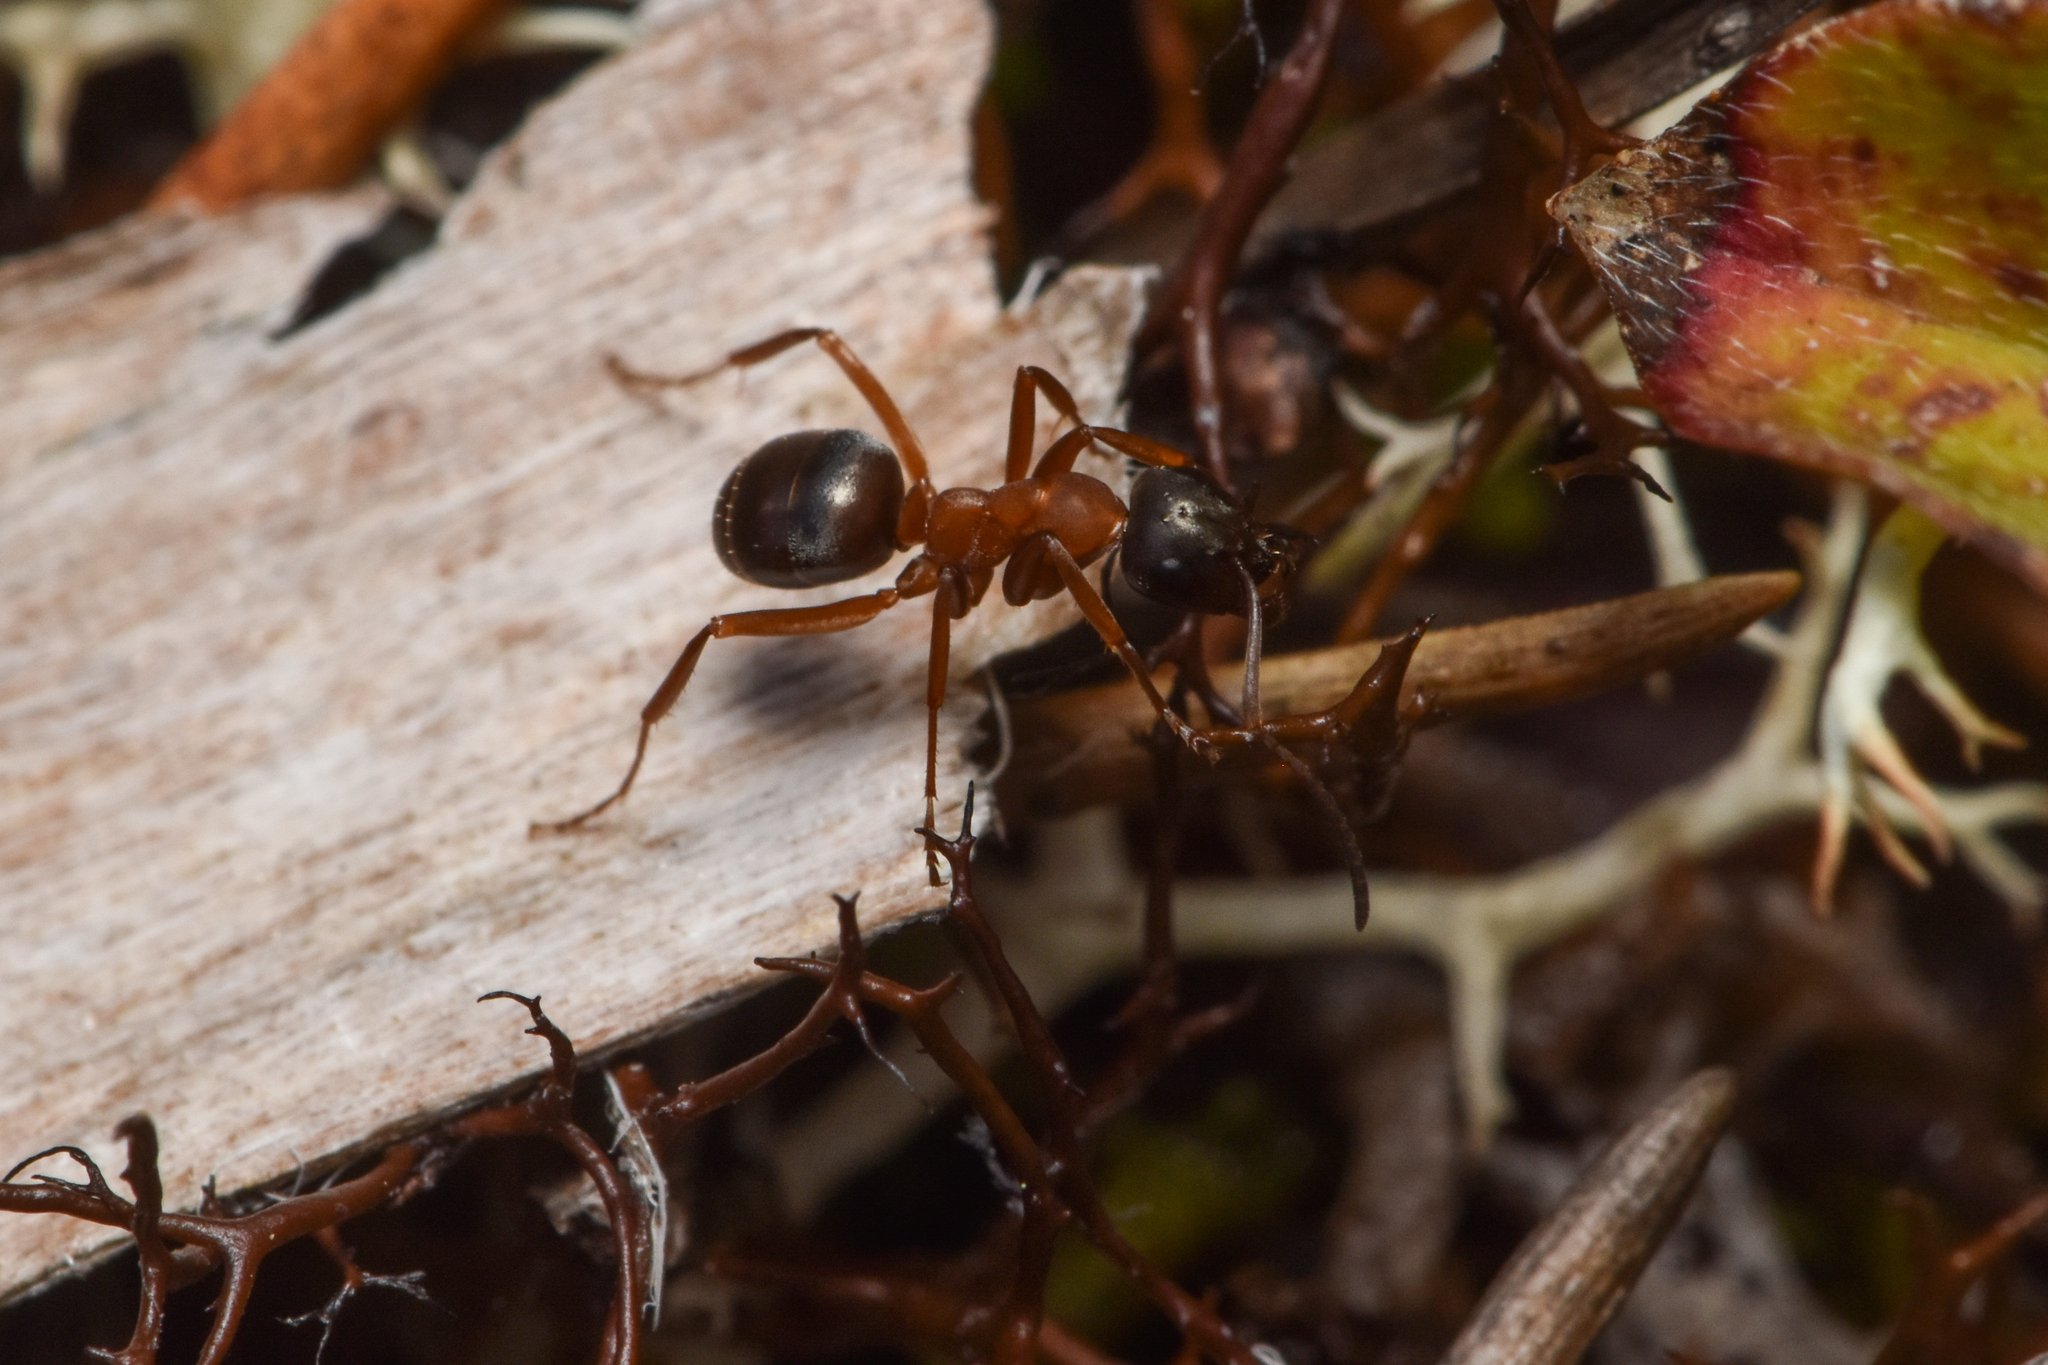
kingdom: Animalia
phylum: Arthropoda
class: Insecta
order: Hymenoptera
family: Formicidae
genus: Formica
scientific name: Formica neorufibarbis
